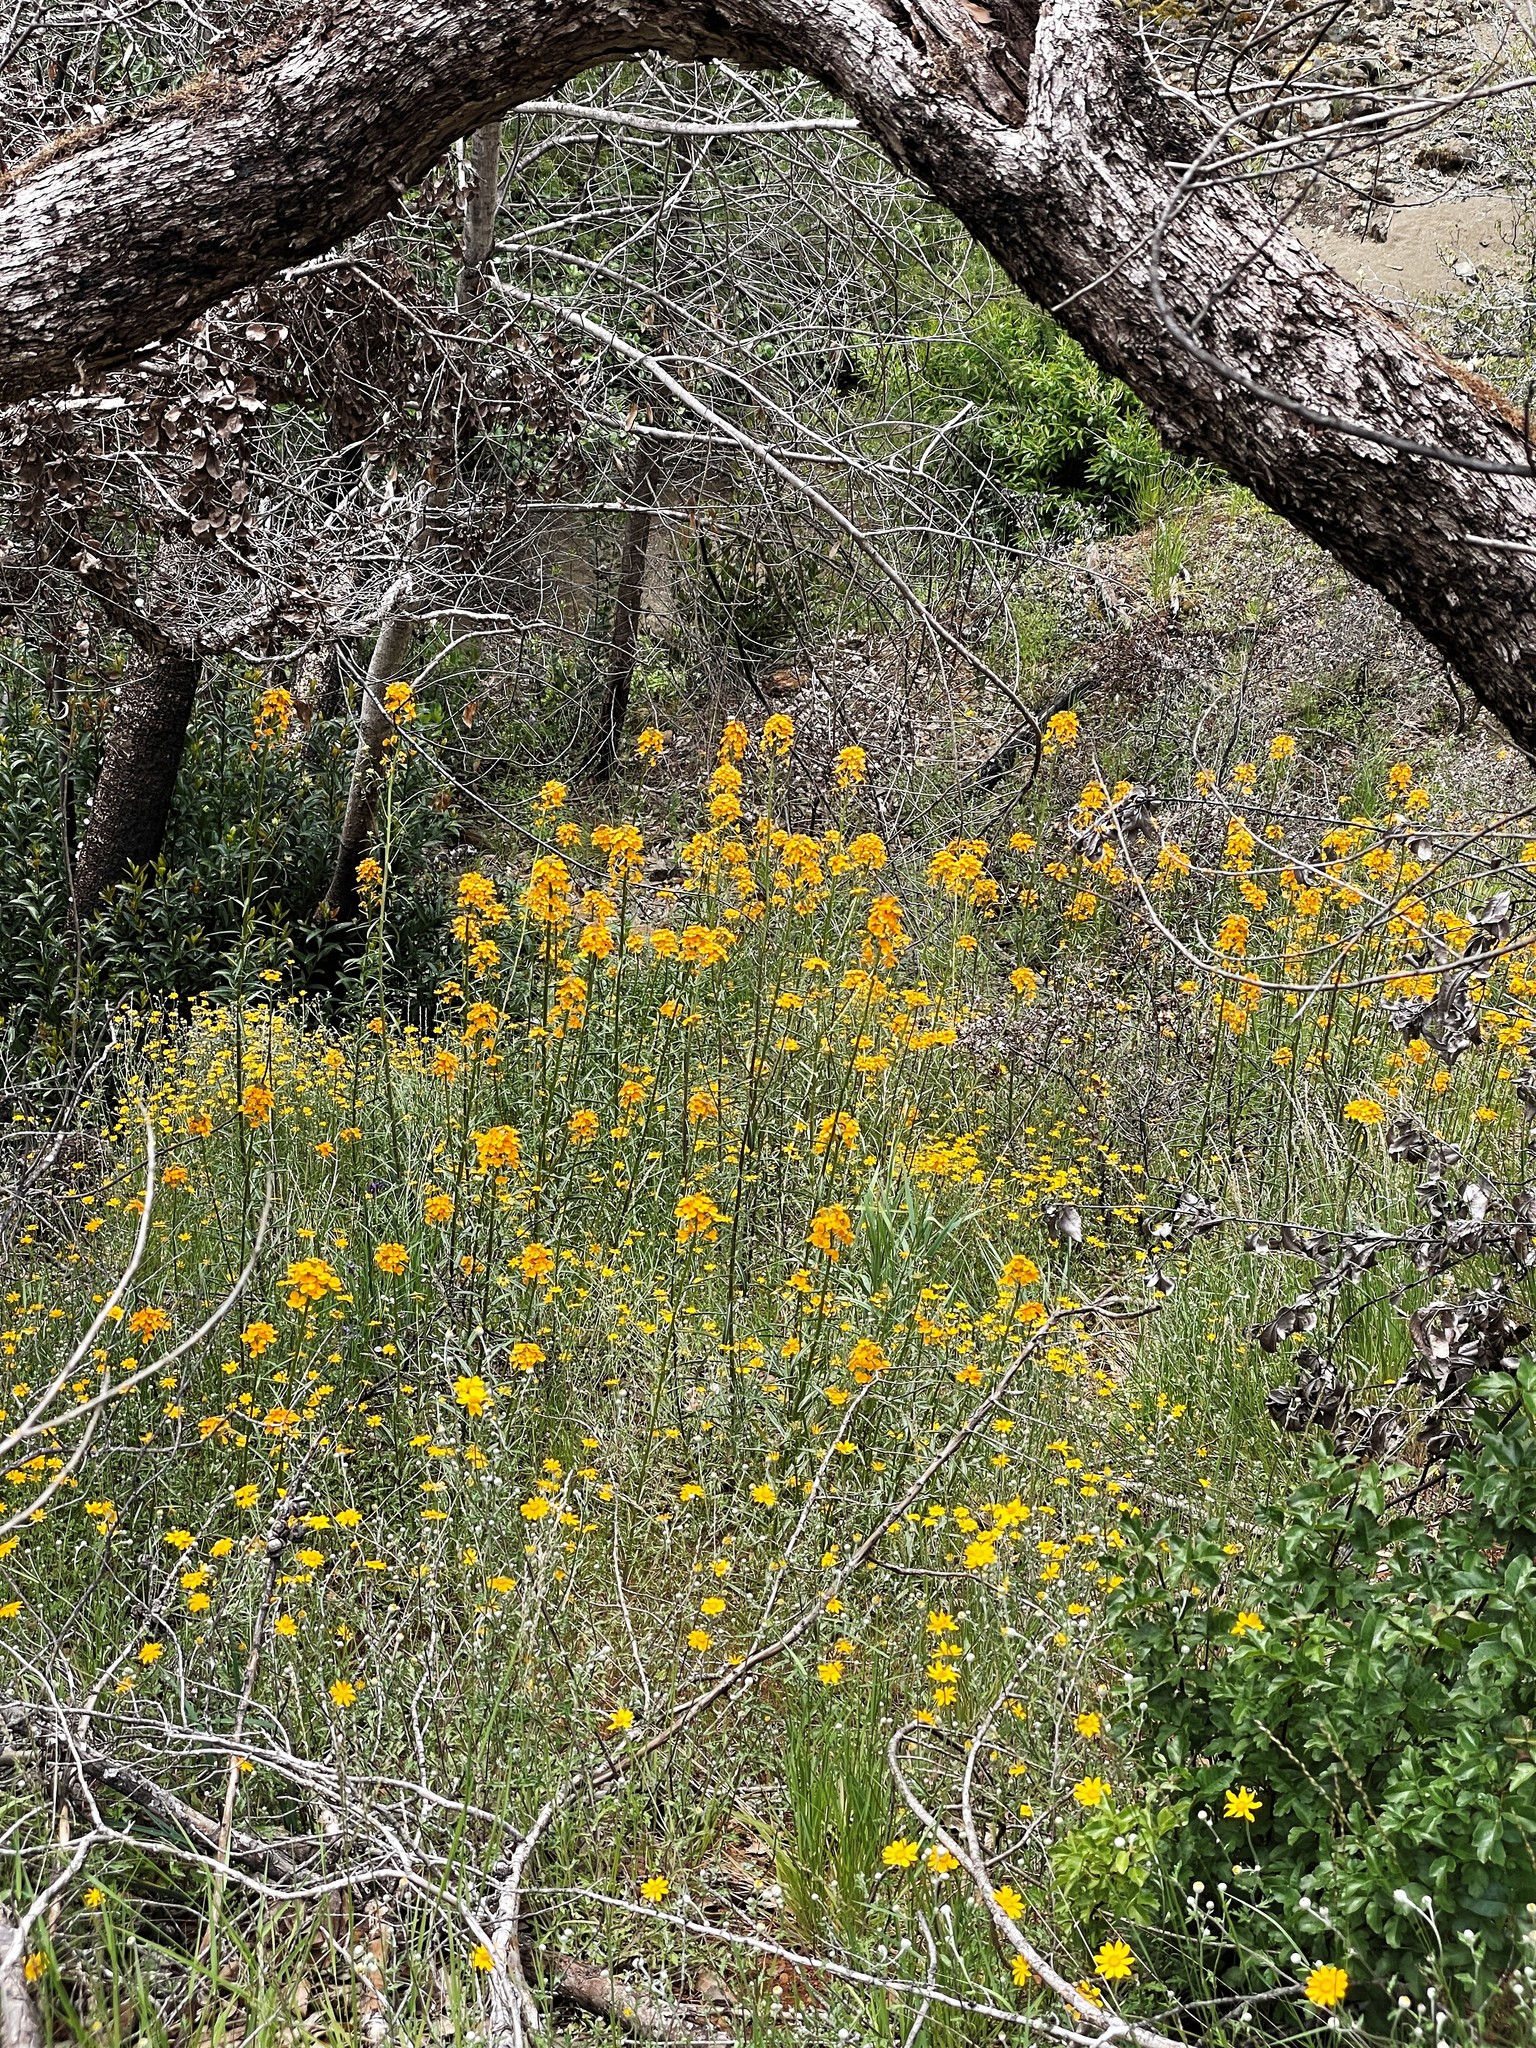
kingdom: Plantae
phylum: Tracheophyta
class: Magnoliopsida
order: Brassicales
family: Brassicaceae
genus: Erysimum
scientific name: Erysimum capitatum
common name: Western wallflower
